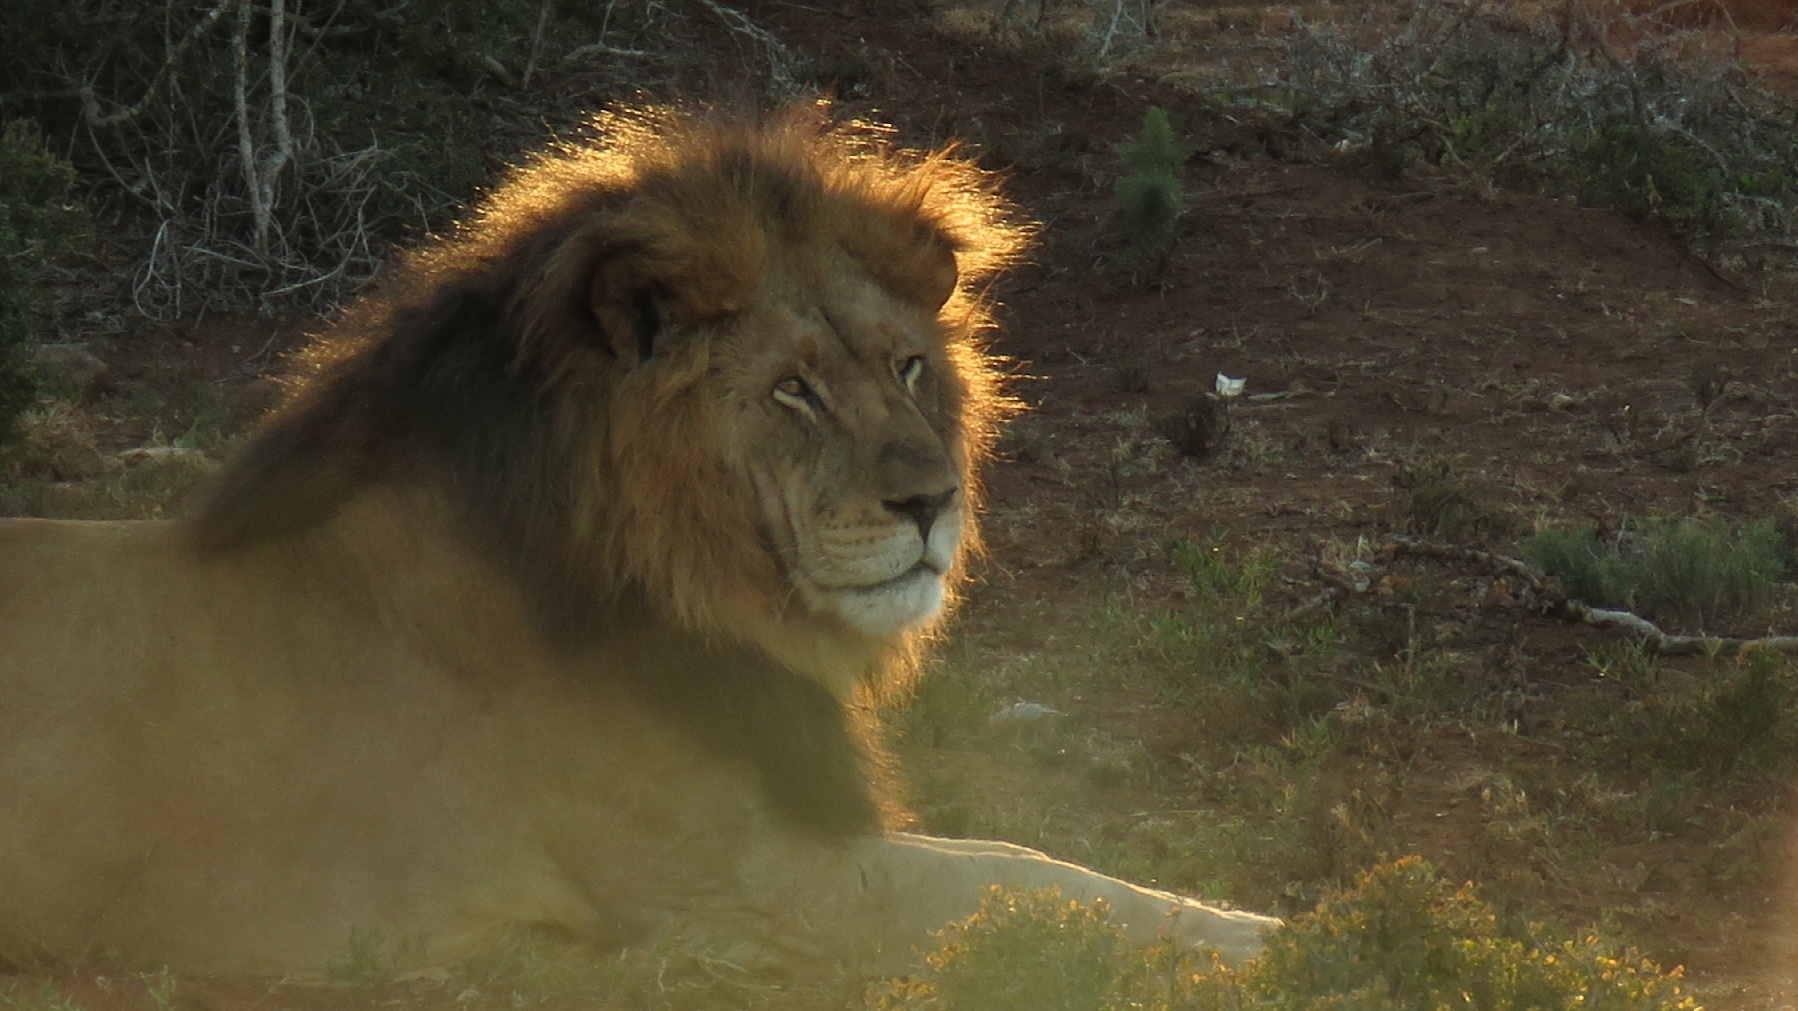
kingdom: Animalia
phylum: Chordata
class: Mammalia
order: Carnivora
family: Felidae
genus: Panthera
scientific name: Panthera leo
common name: Lion
